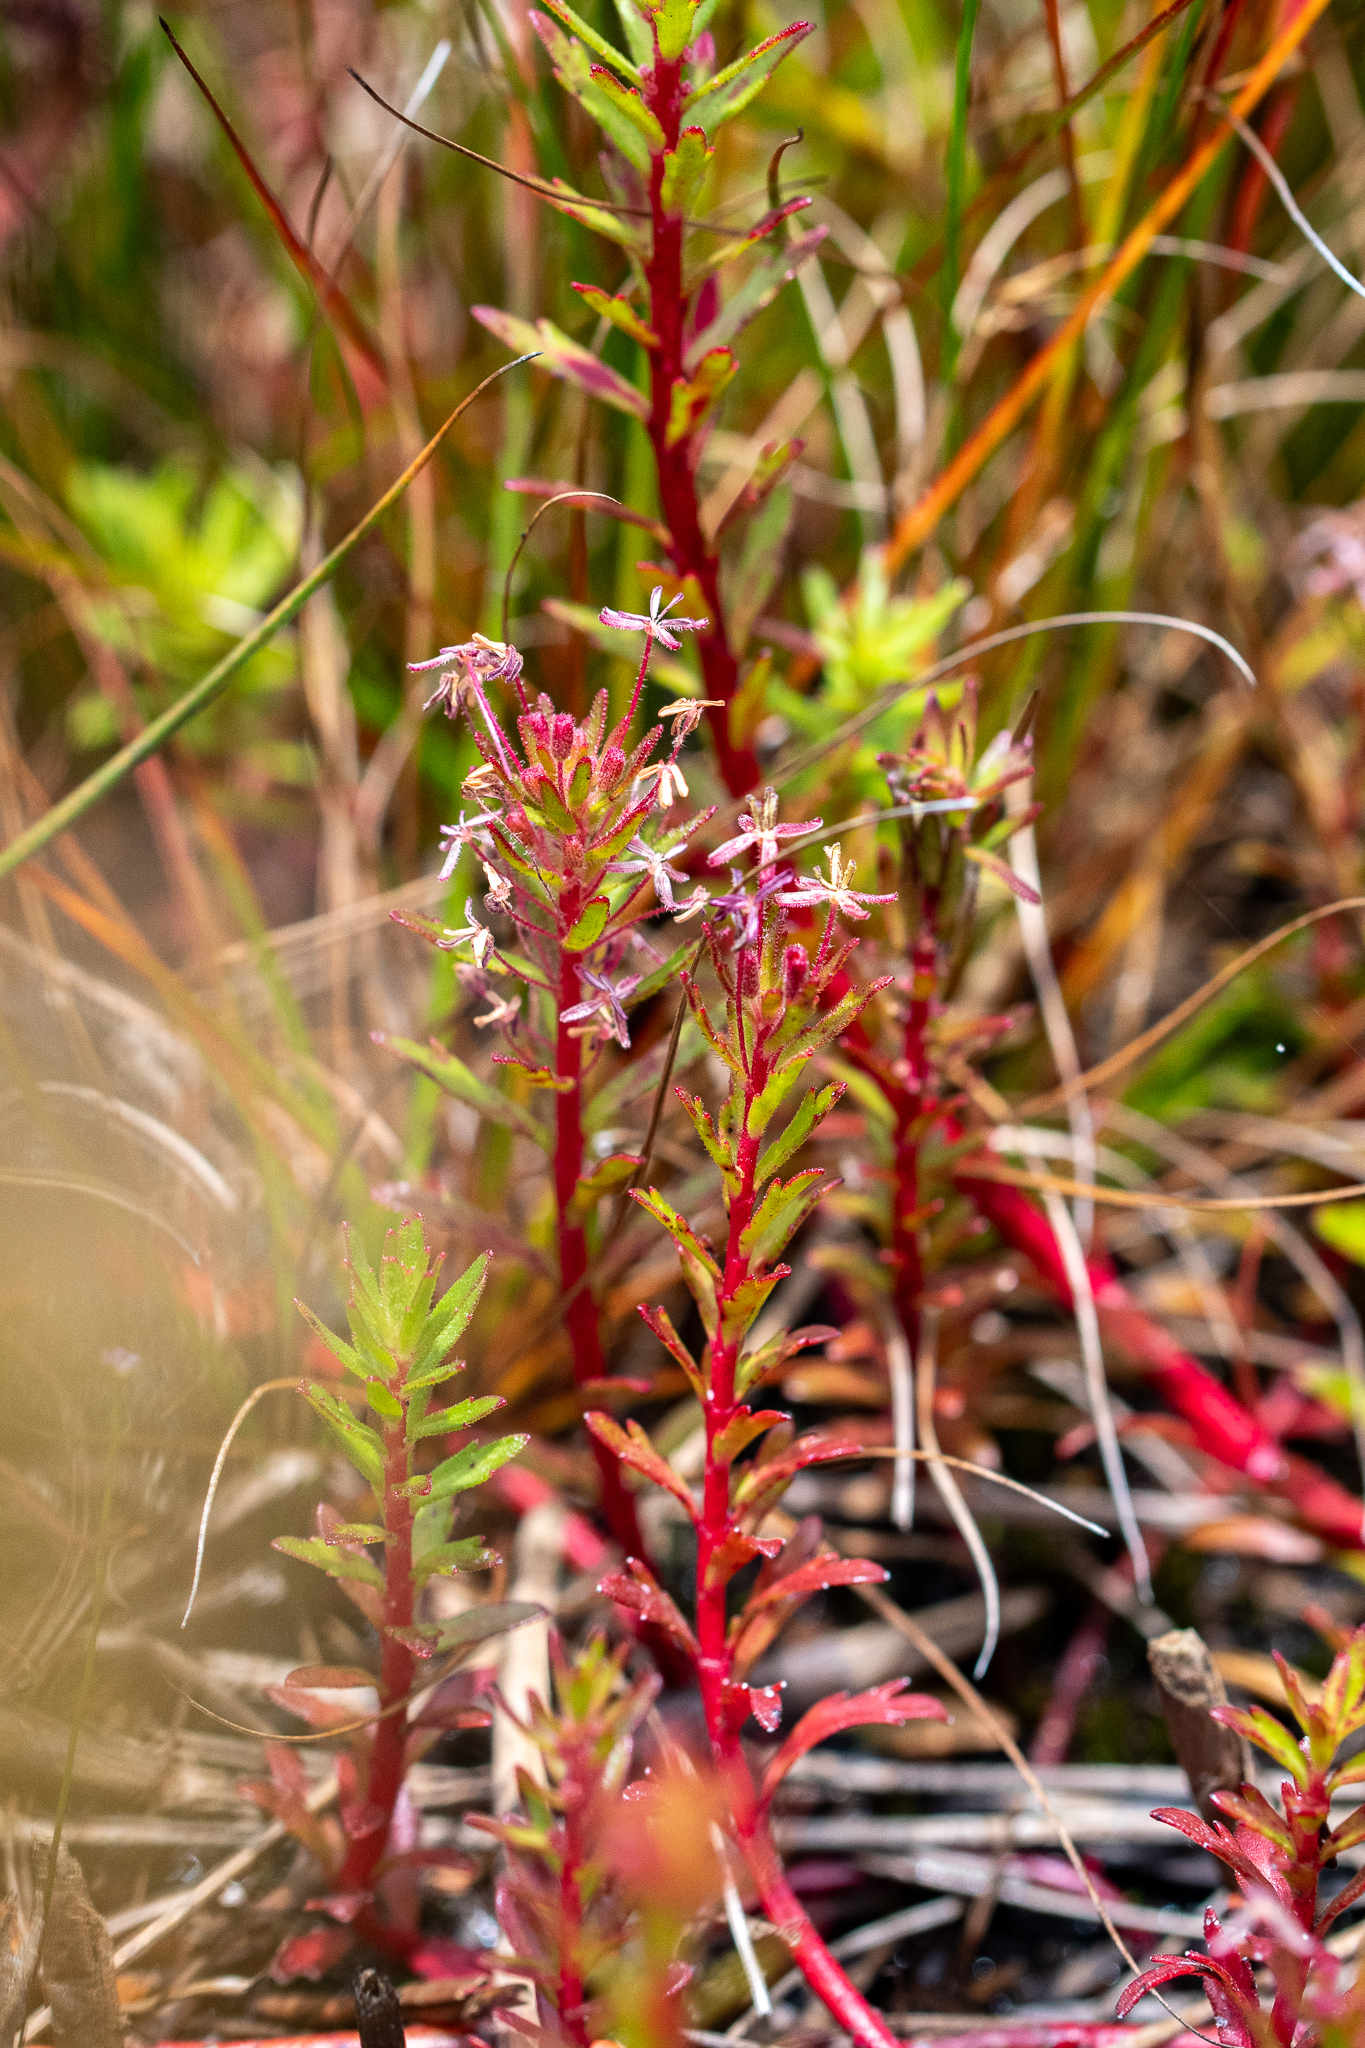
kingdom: Plantae
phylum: Tracheophyta
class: Magnoliopsida
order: Saxifragales
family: Haloragaceae
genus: Laurembergia
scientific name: Laurembergia repens
